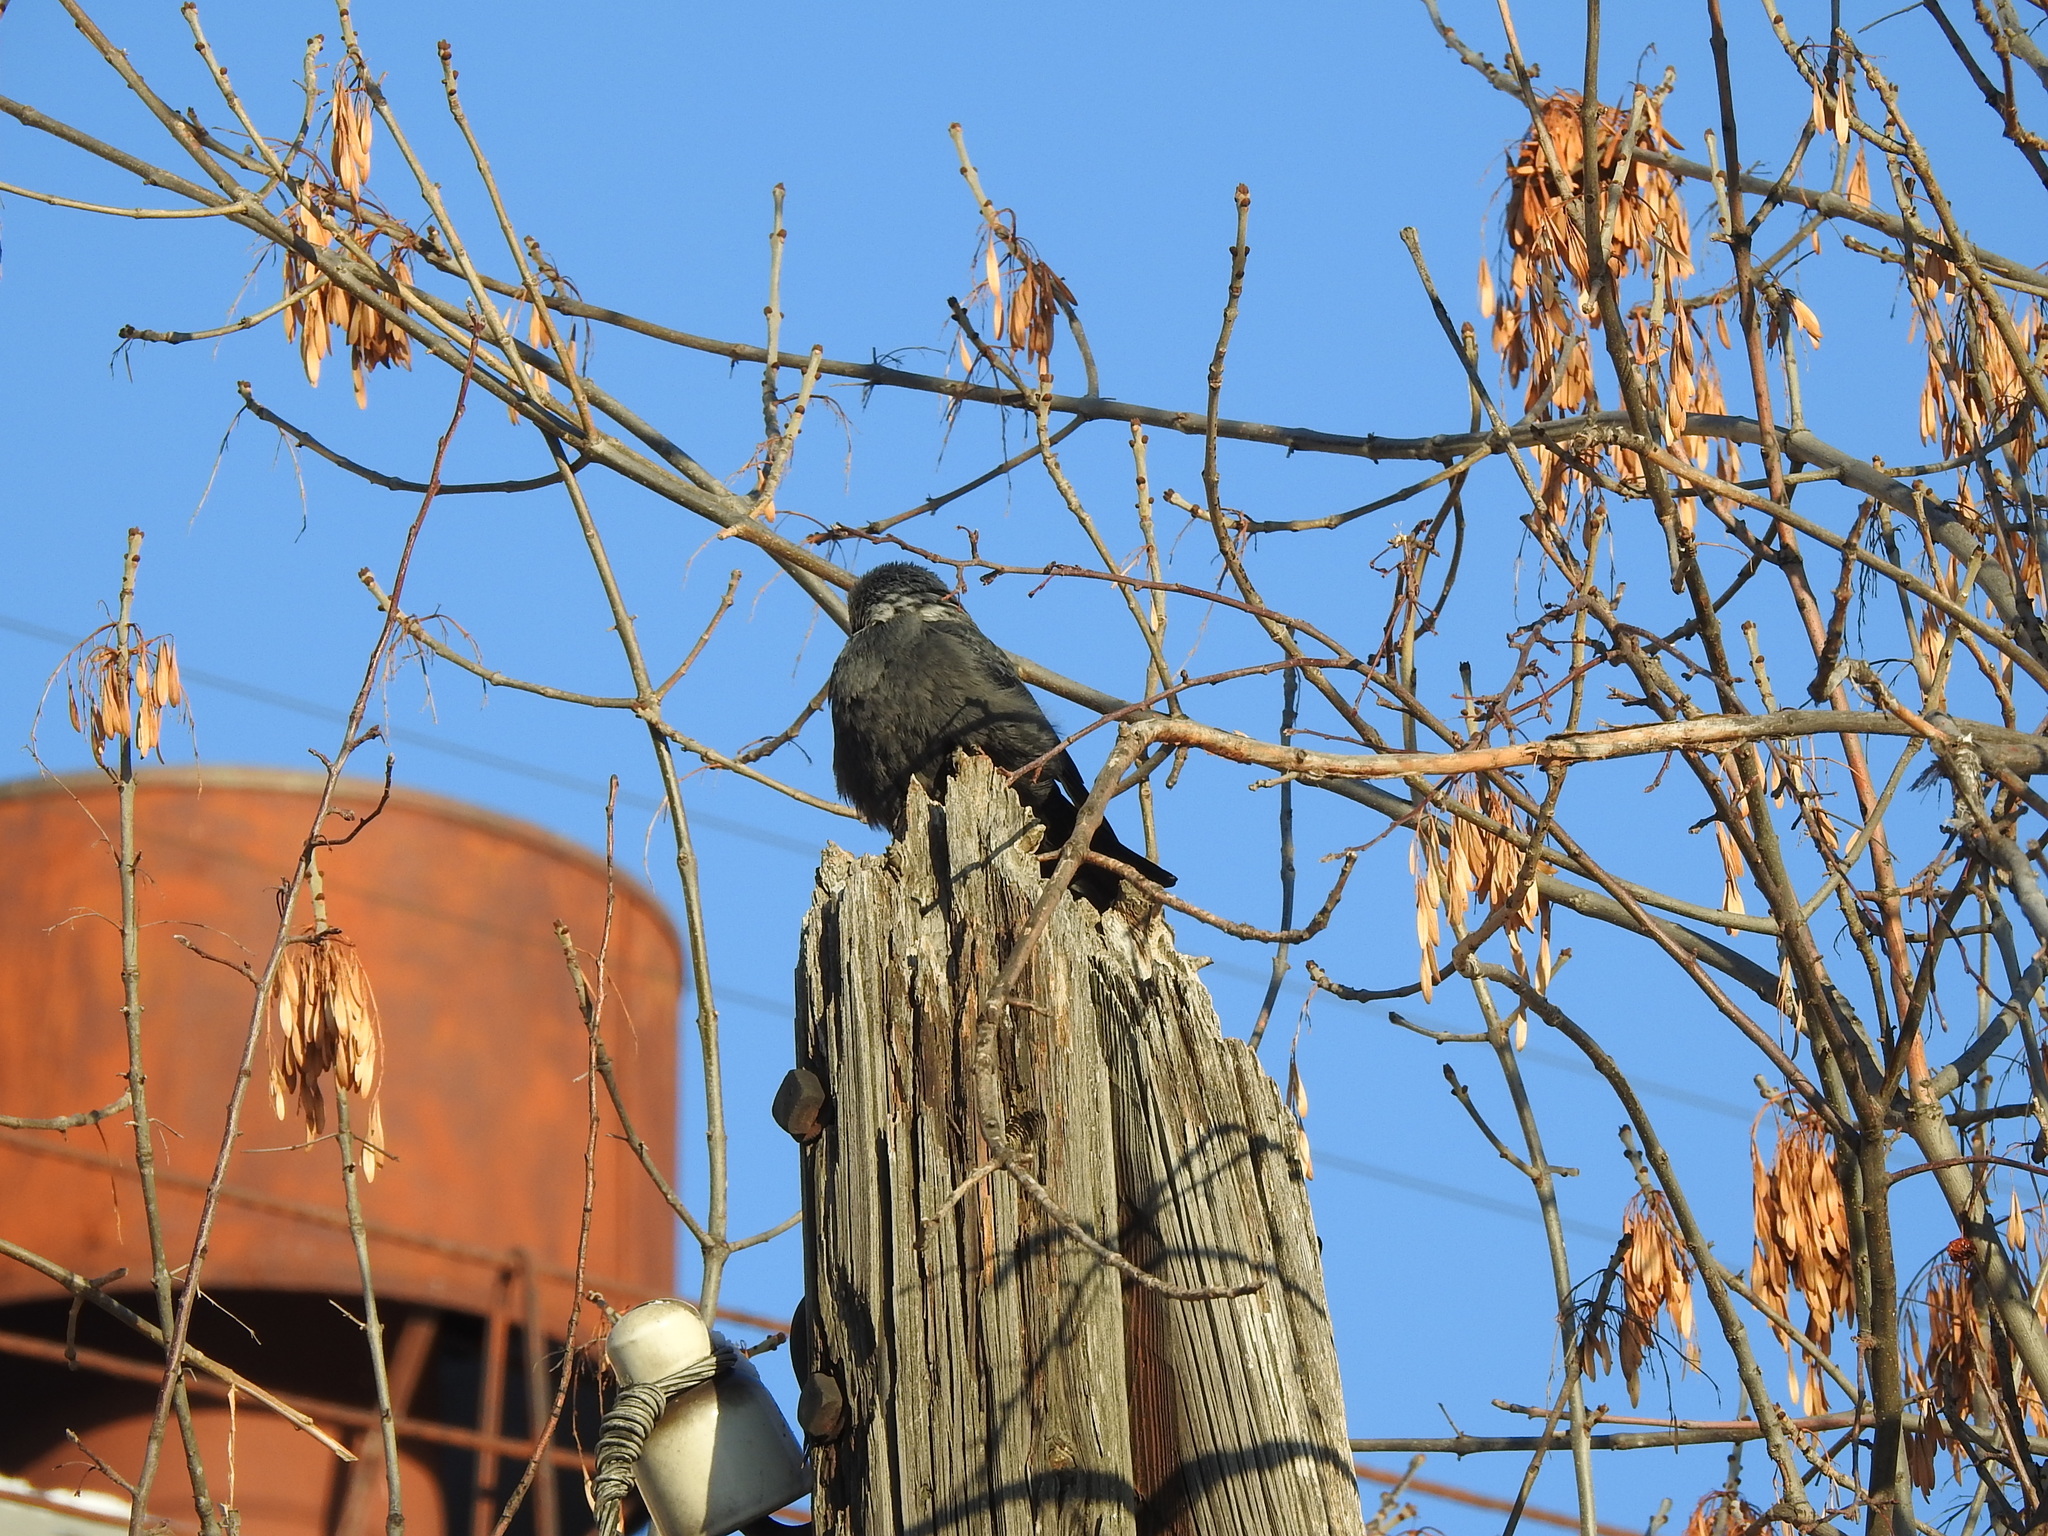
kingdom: Animalia
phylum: Chordata
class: Aves
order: Passeriformes
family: Corvidae
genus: Coloeus
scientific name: Coloeus monedula
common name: Western jackdaw
